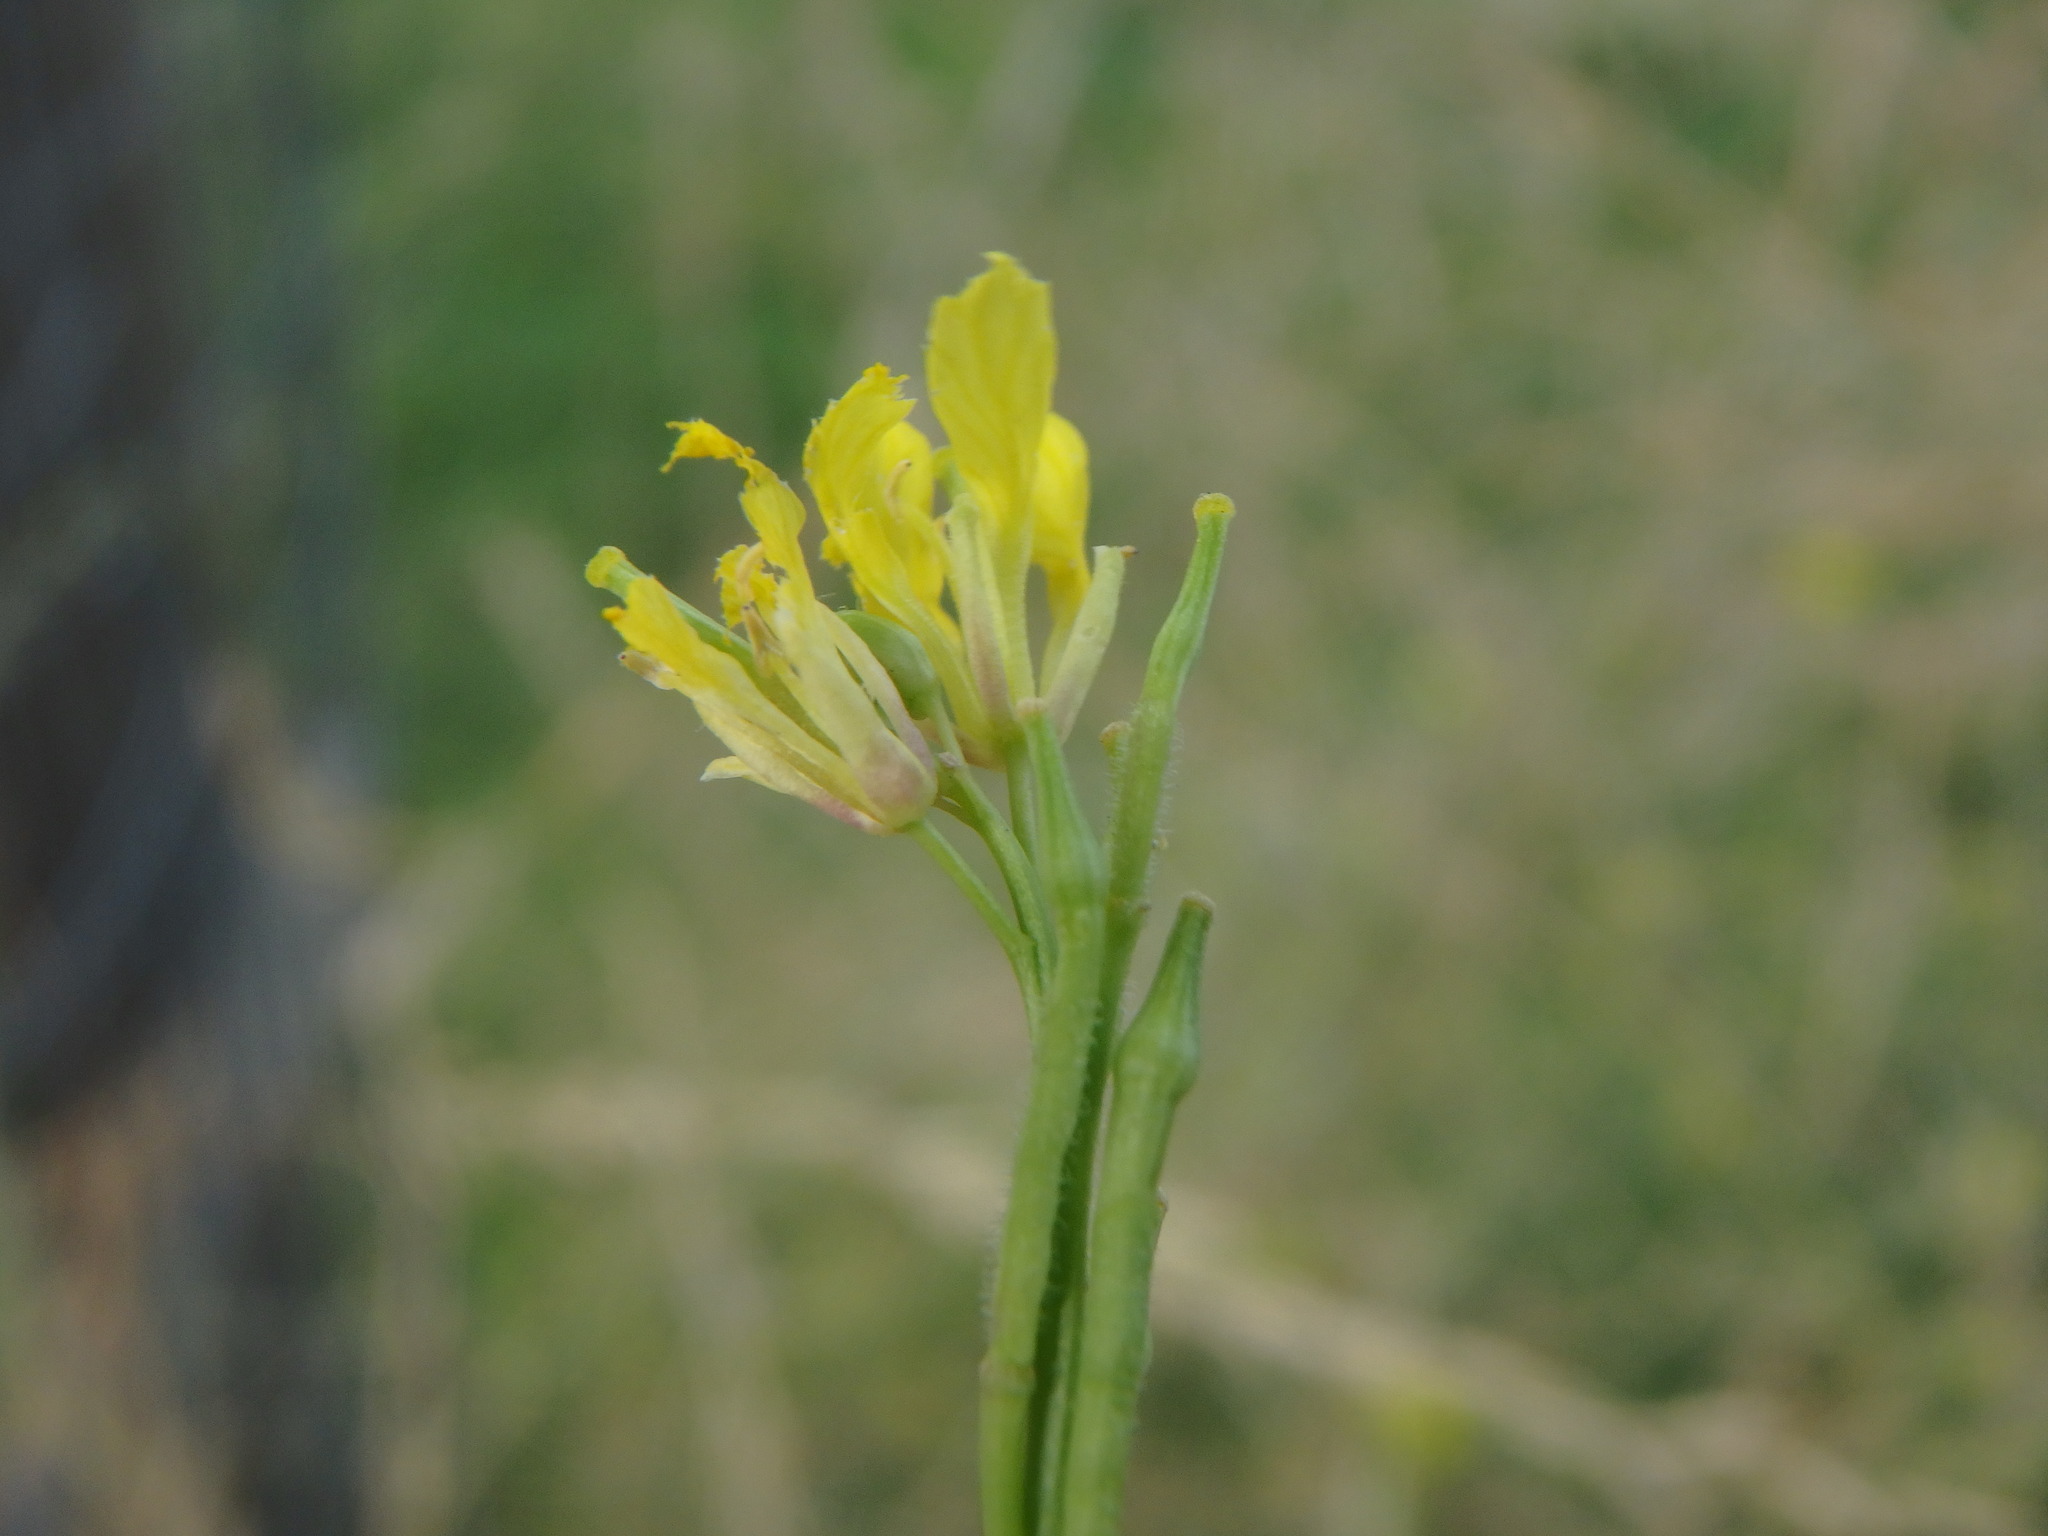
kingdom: Plantae
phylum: Tracheophyta
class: Magnoliopsida
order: Brassicales
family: Brassicaceae
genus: Hirschfeldia
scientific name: Hirschfeldia incana
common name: Hoary mustard
